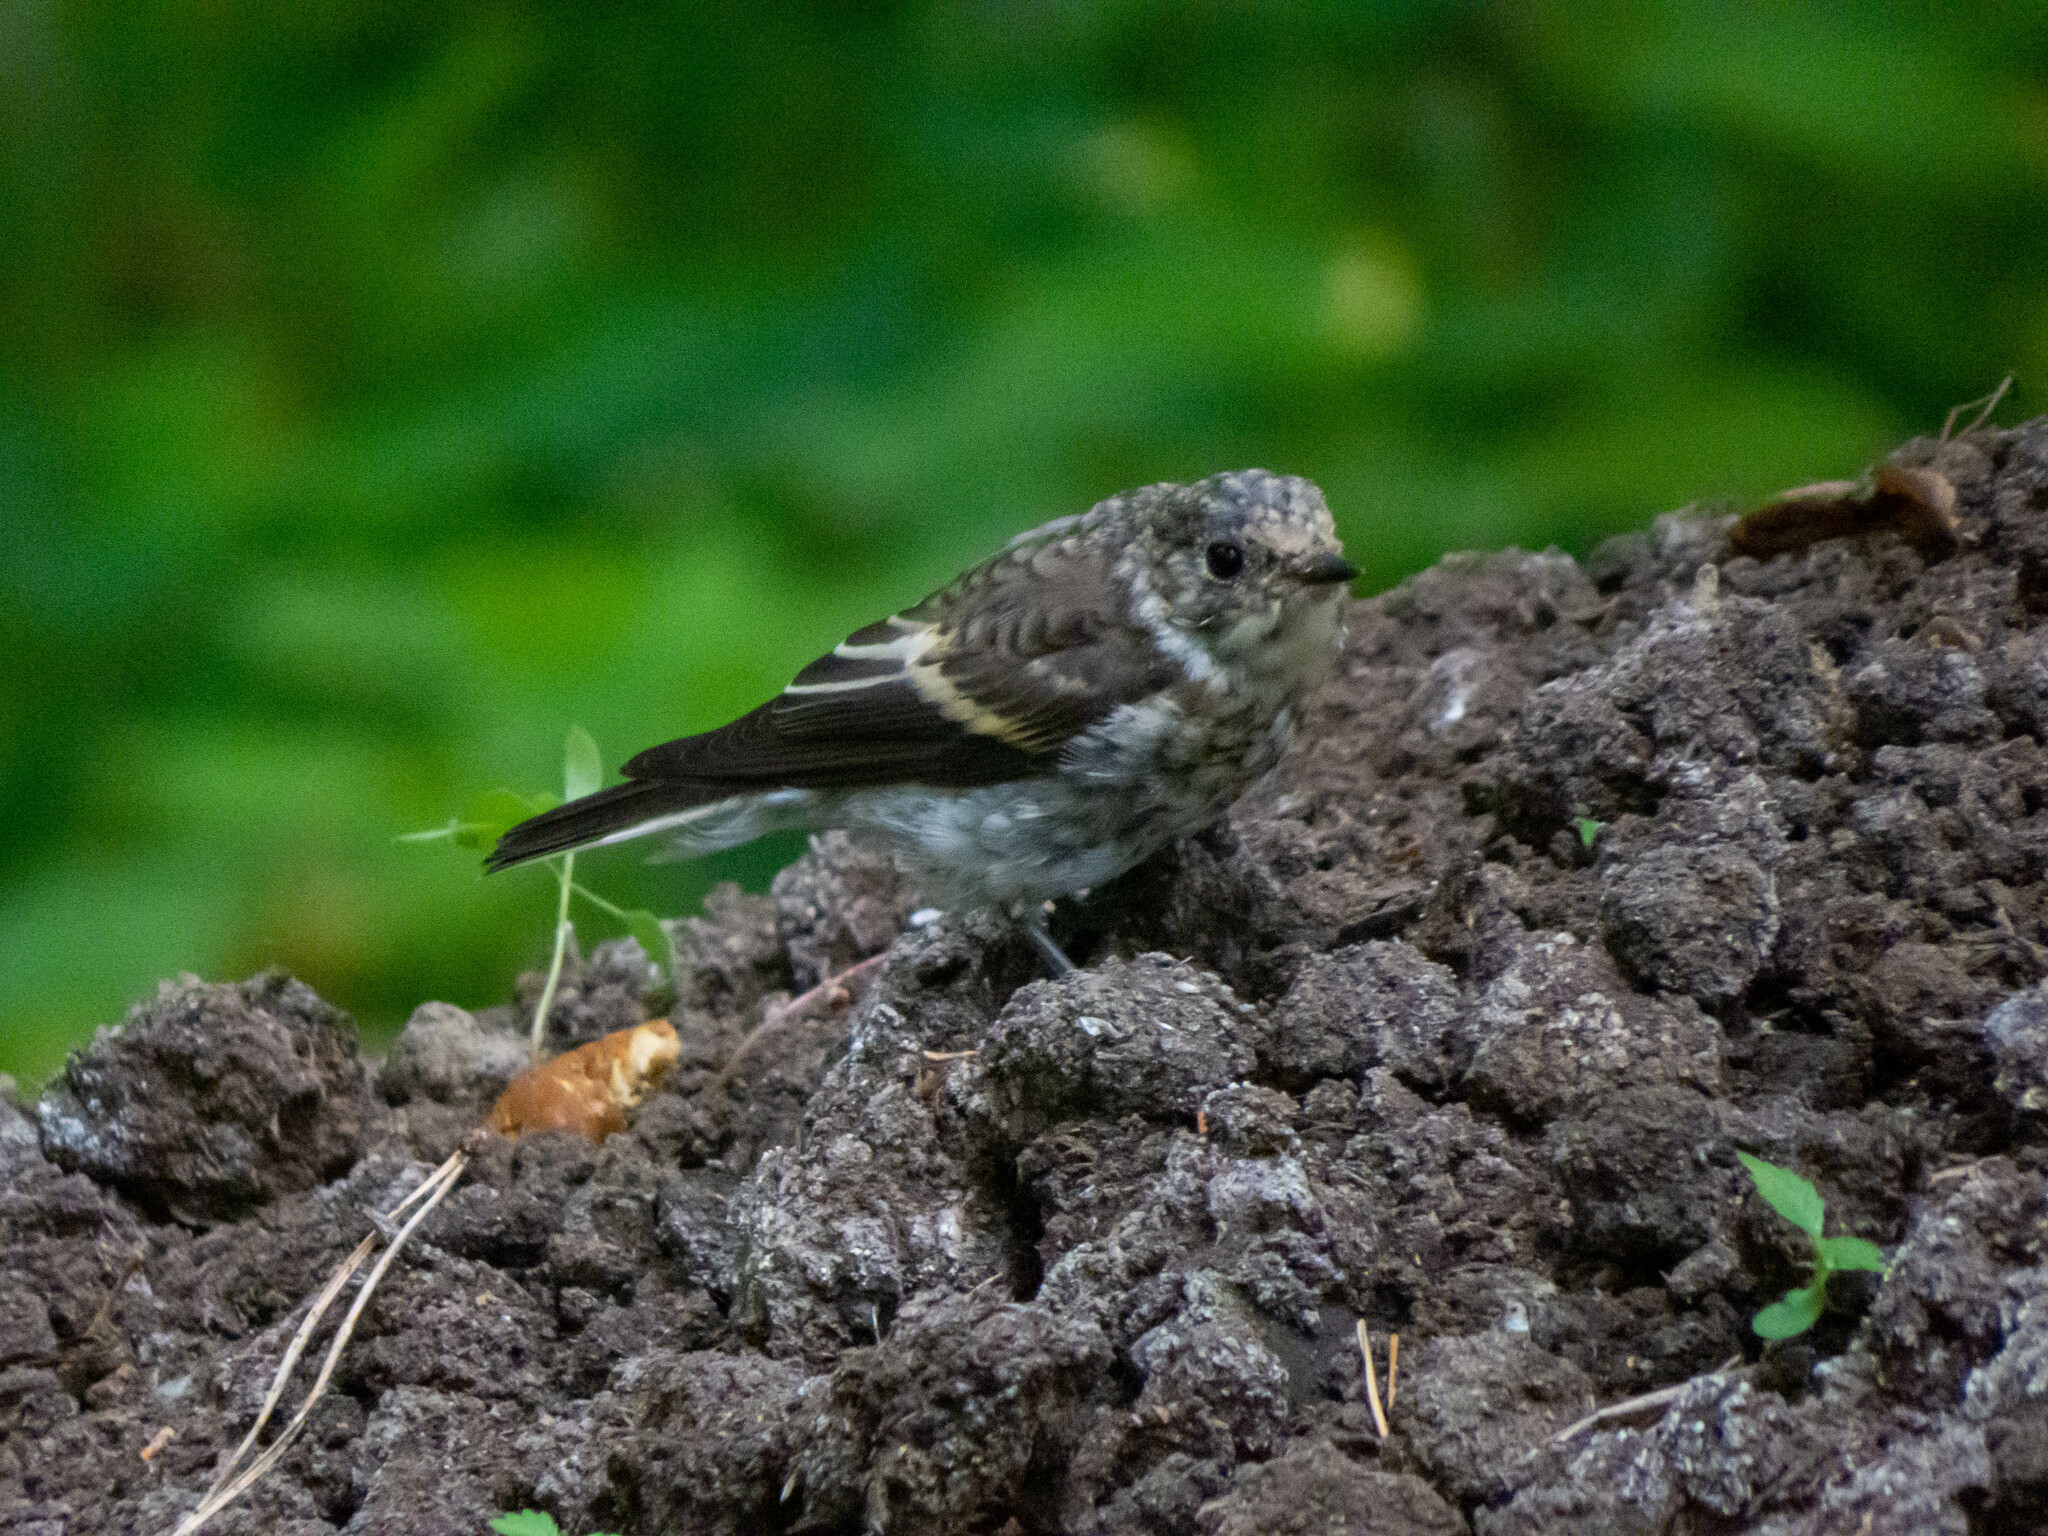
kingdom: Animalia
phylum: Chordata
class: Aves
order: Passeriformes
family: Muscicapidae
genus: Ficedula
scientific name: Ficedula hypoleuca
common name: European pied flycatcher
